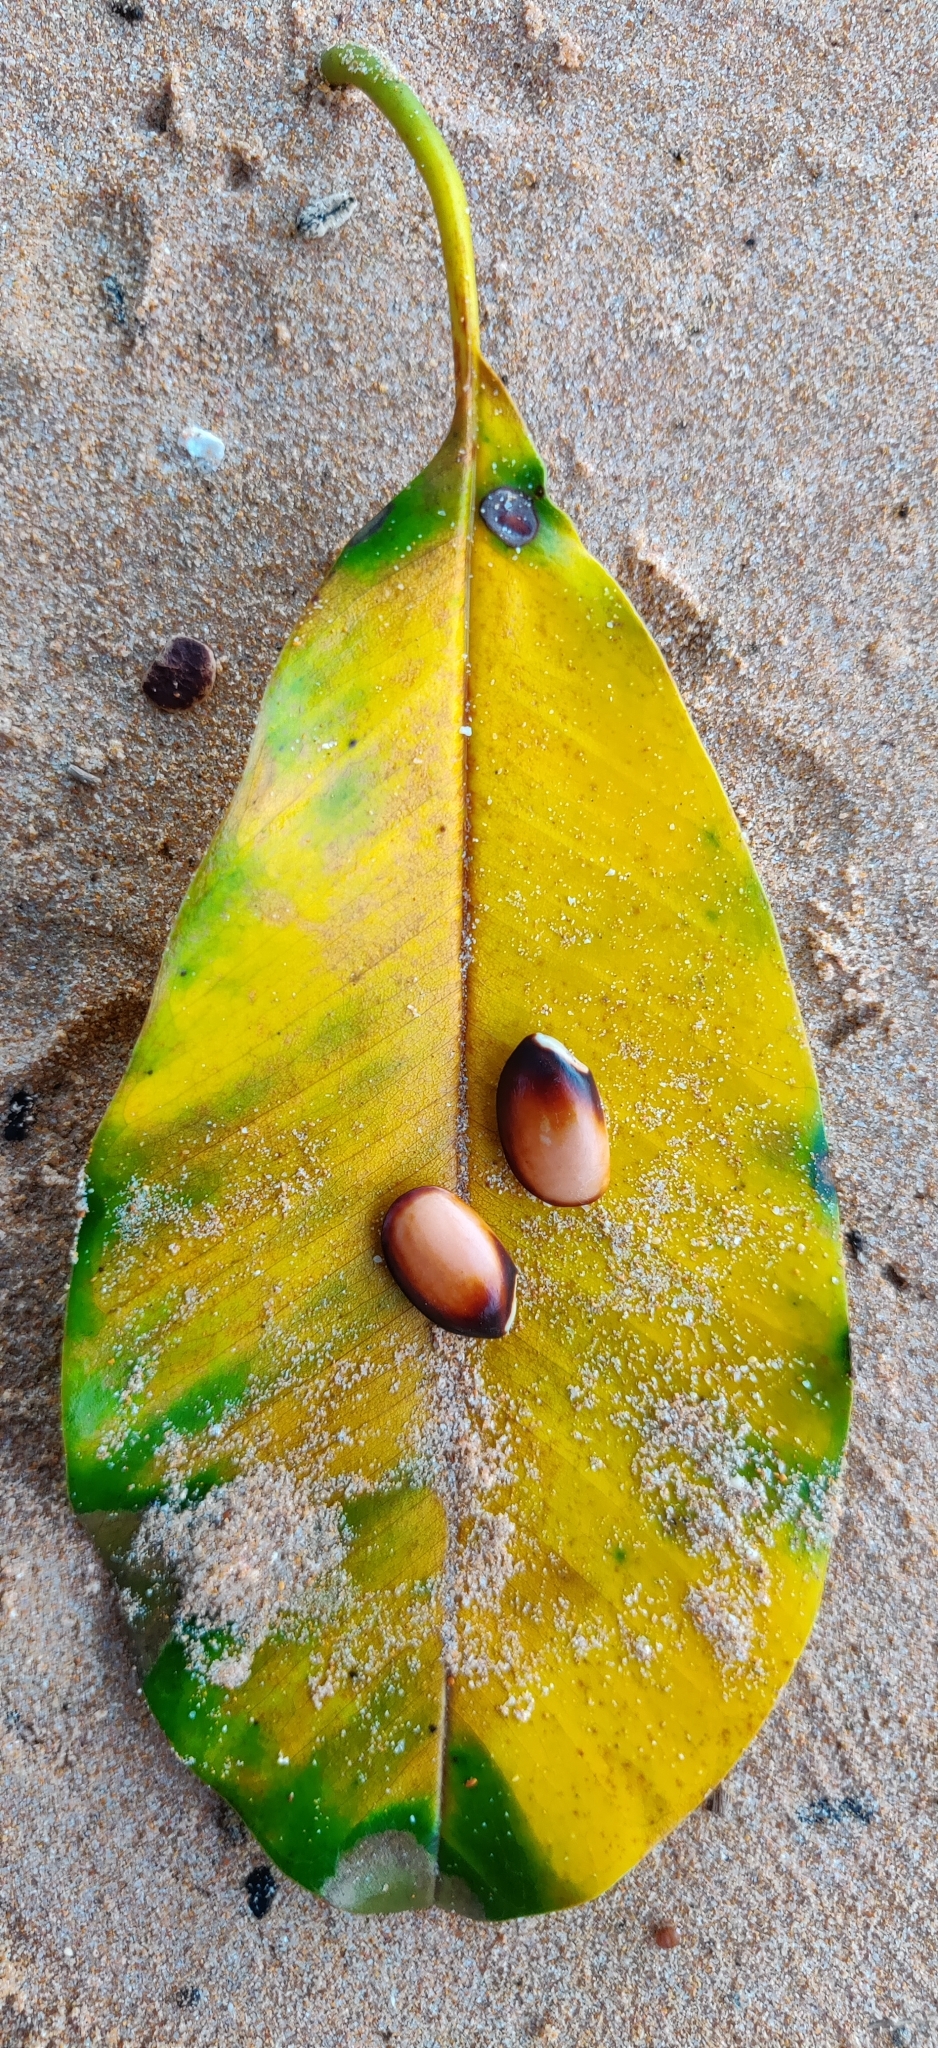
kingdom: Plantae
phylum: Tracheophyta
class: Magnoliopsida
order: Ericales
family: Sapotaceae
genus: Manilkara
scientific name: Manilkara littoralis
